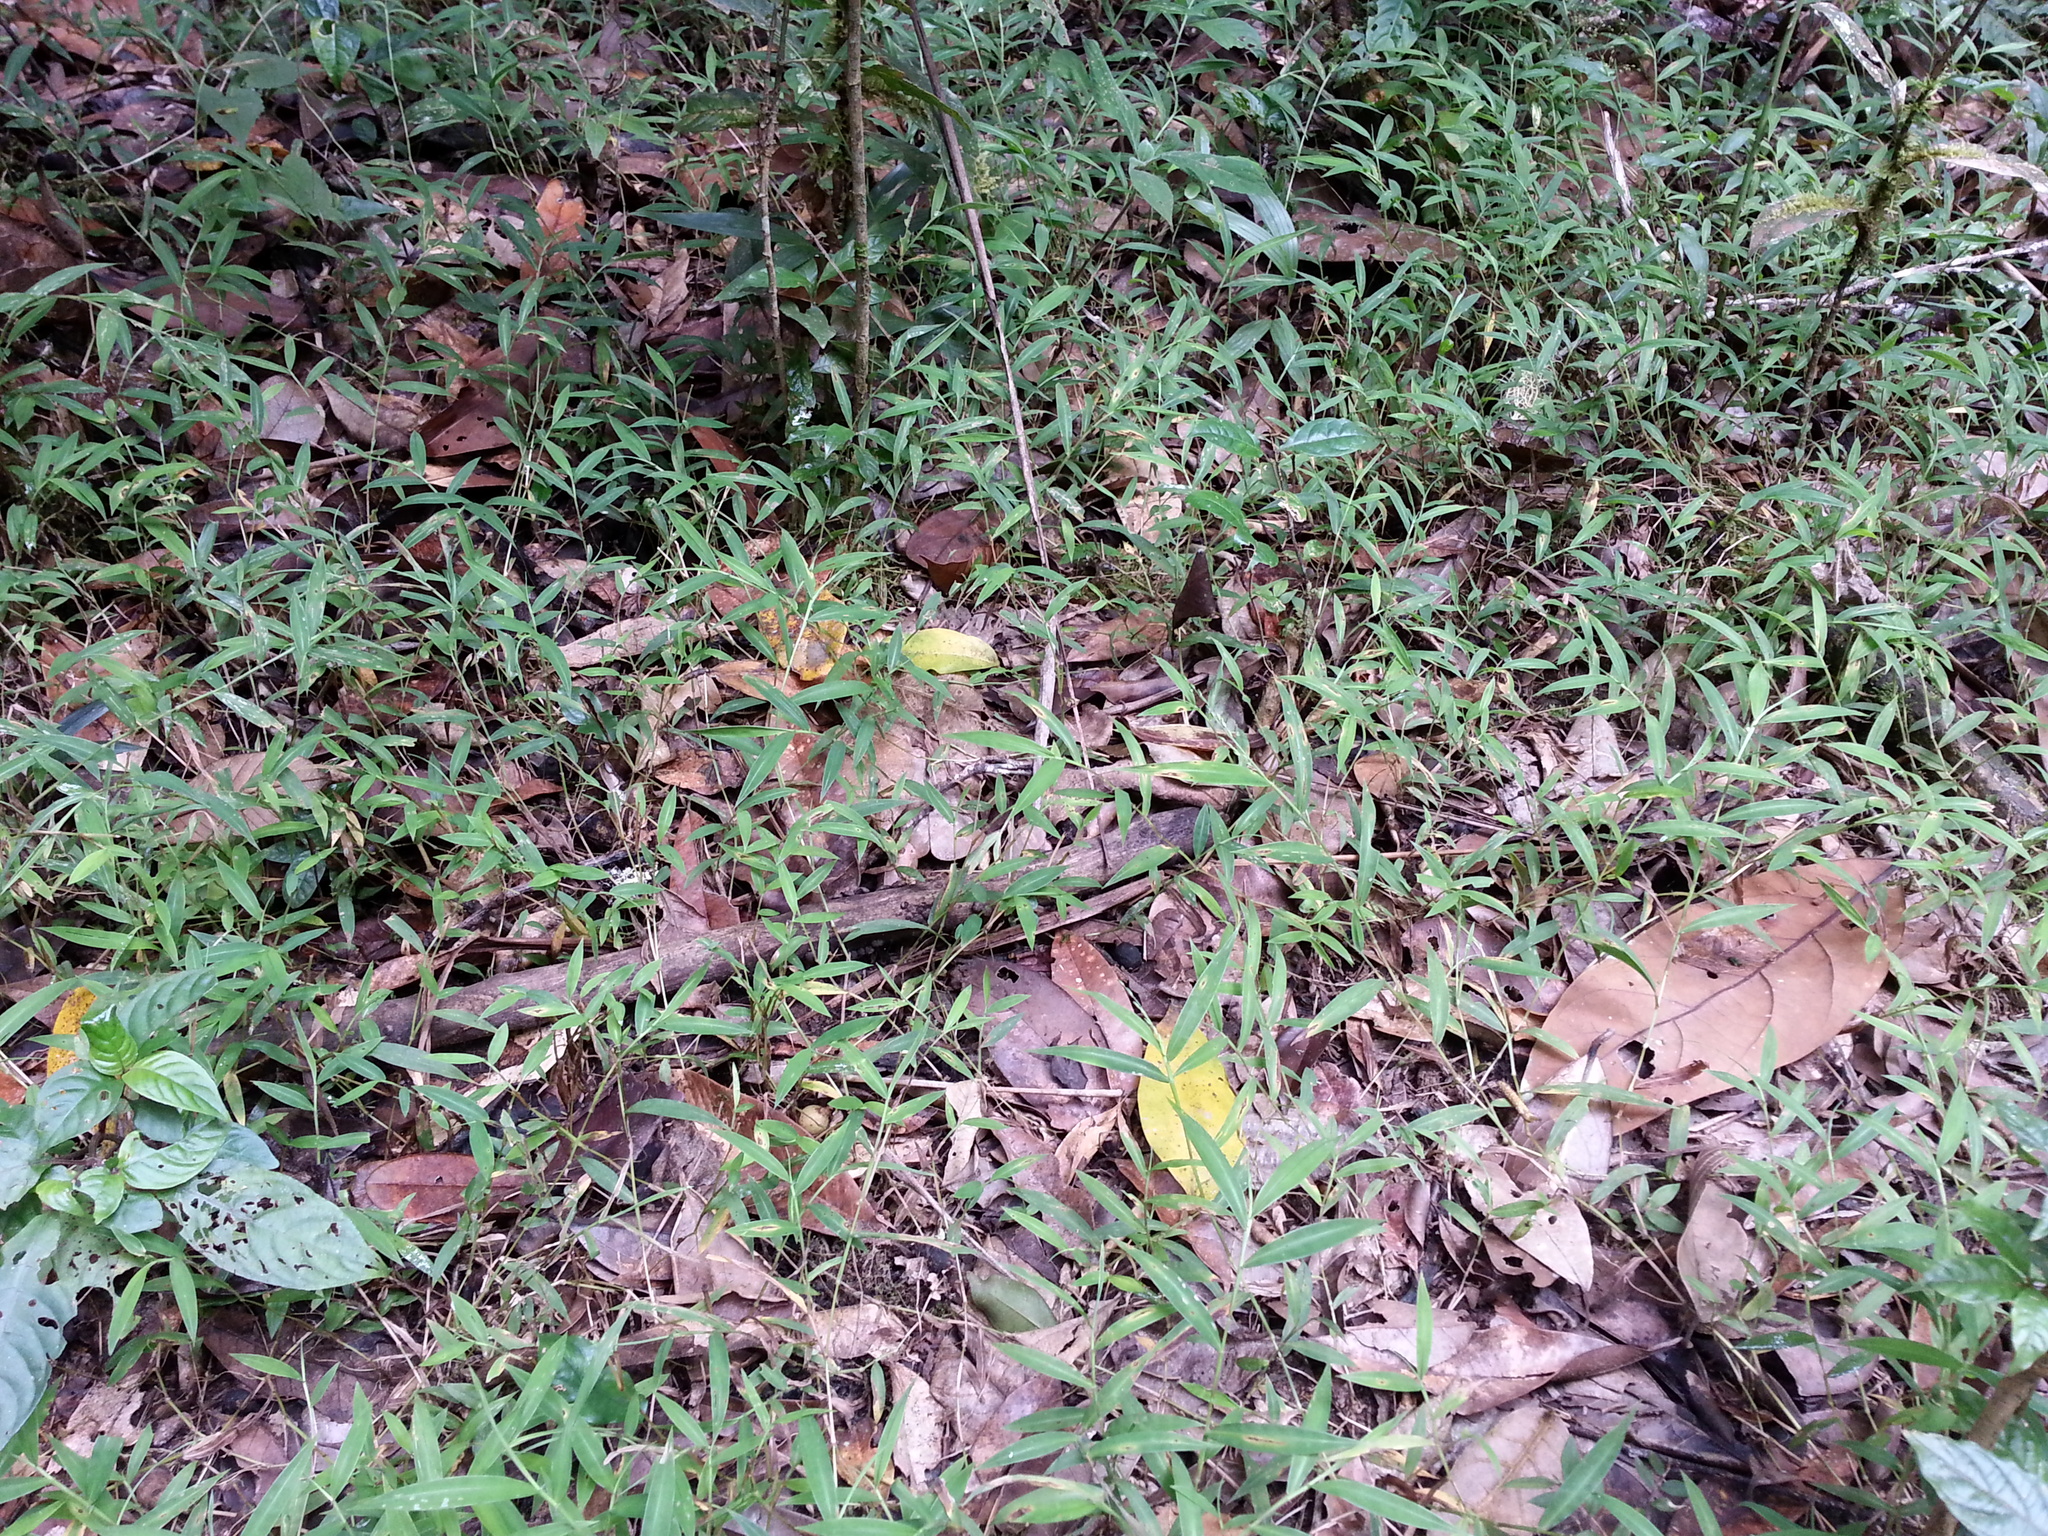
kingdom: Plantae
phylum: Tracheophyta
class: Liliopsida
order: Poales
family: Poaceae
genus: Urochloa
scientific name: Urochloa Brachiaria tsiafajavonensis
